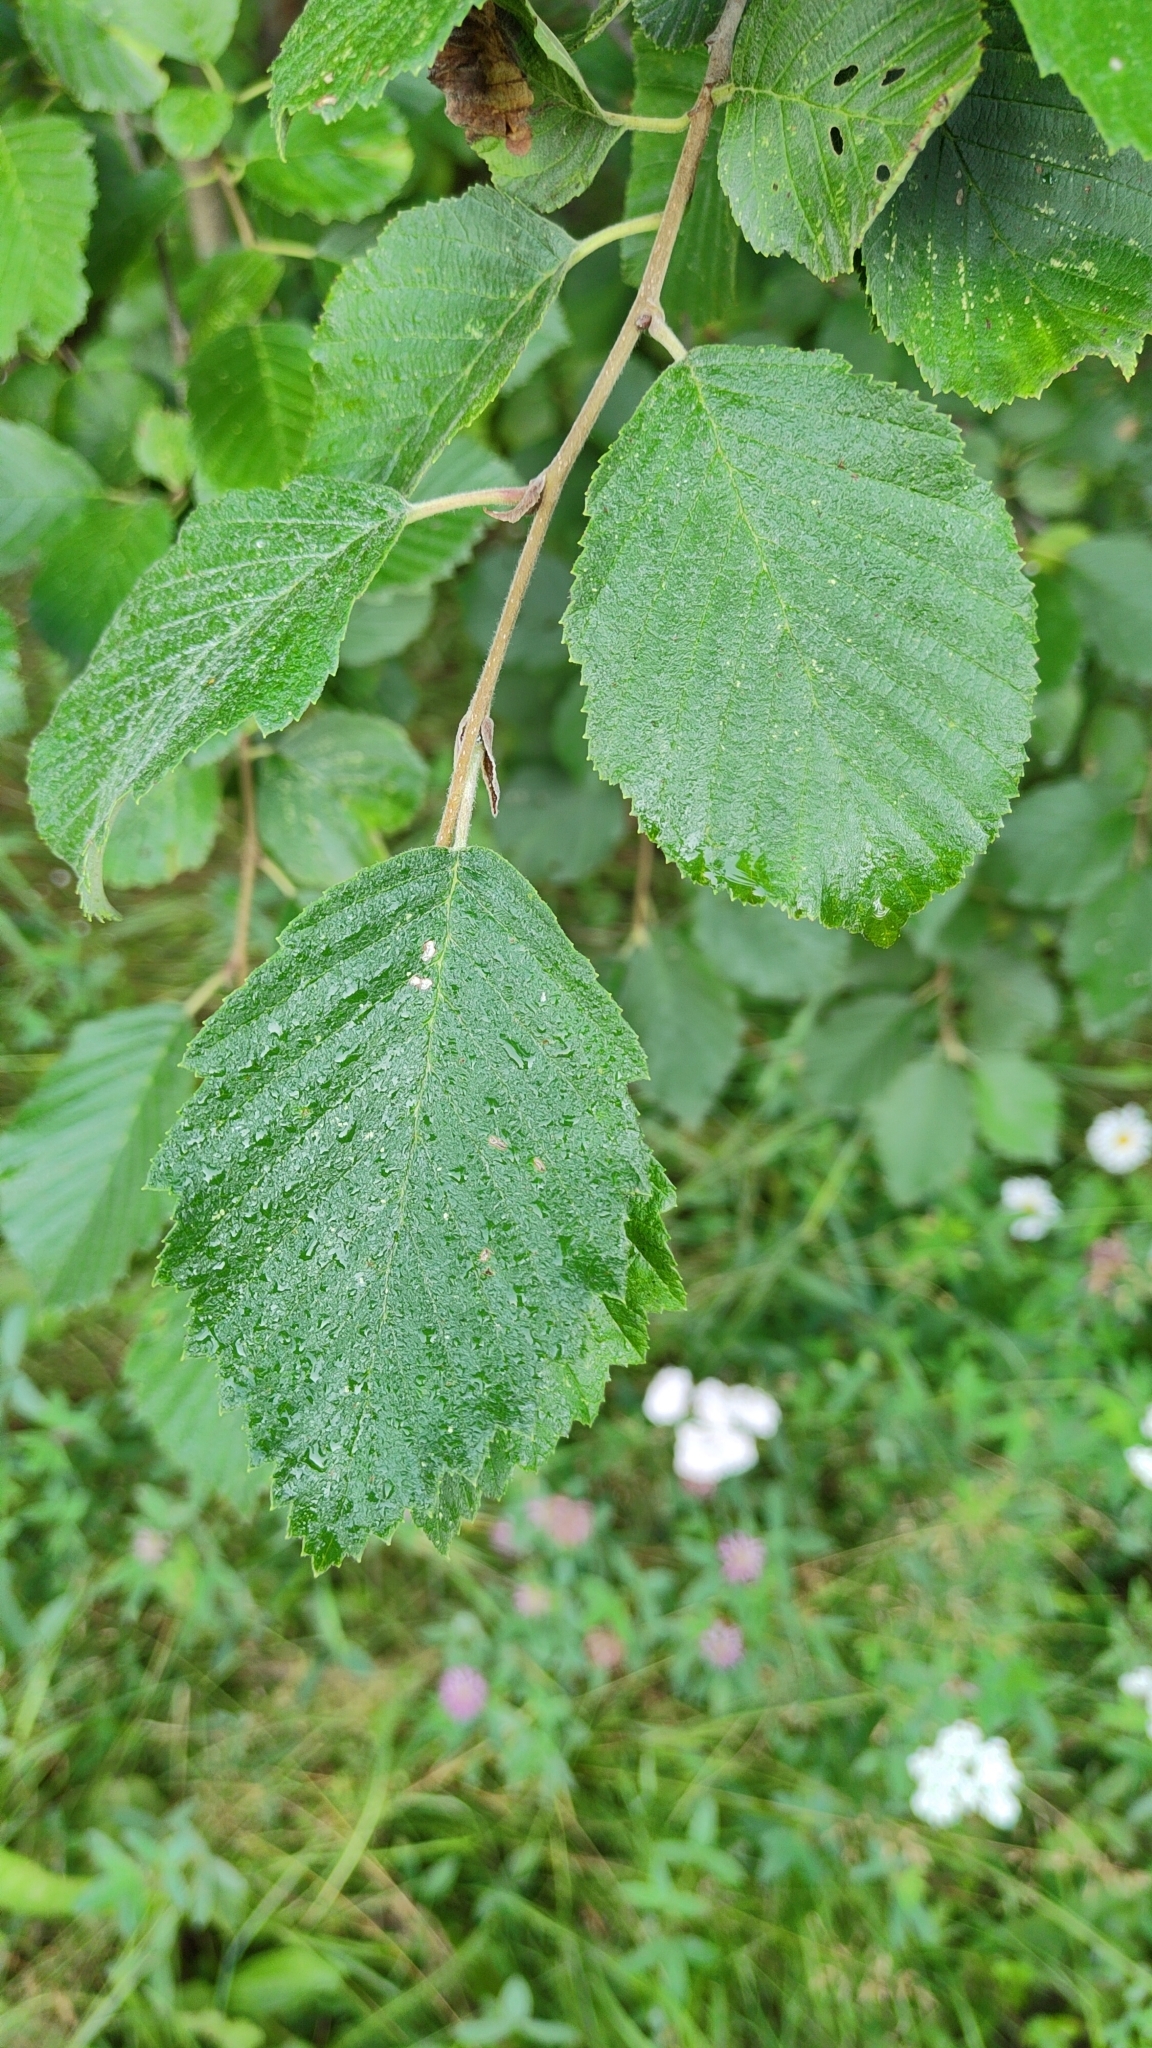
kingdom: Plantae
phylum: Tracheophyta
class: Magnoliopsida
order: Fagales
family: Betulaceae
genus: Alnus
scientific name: Alnus incana
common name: Grey alder
